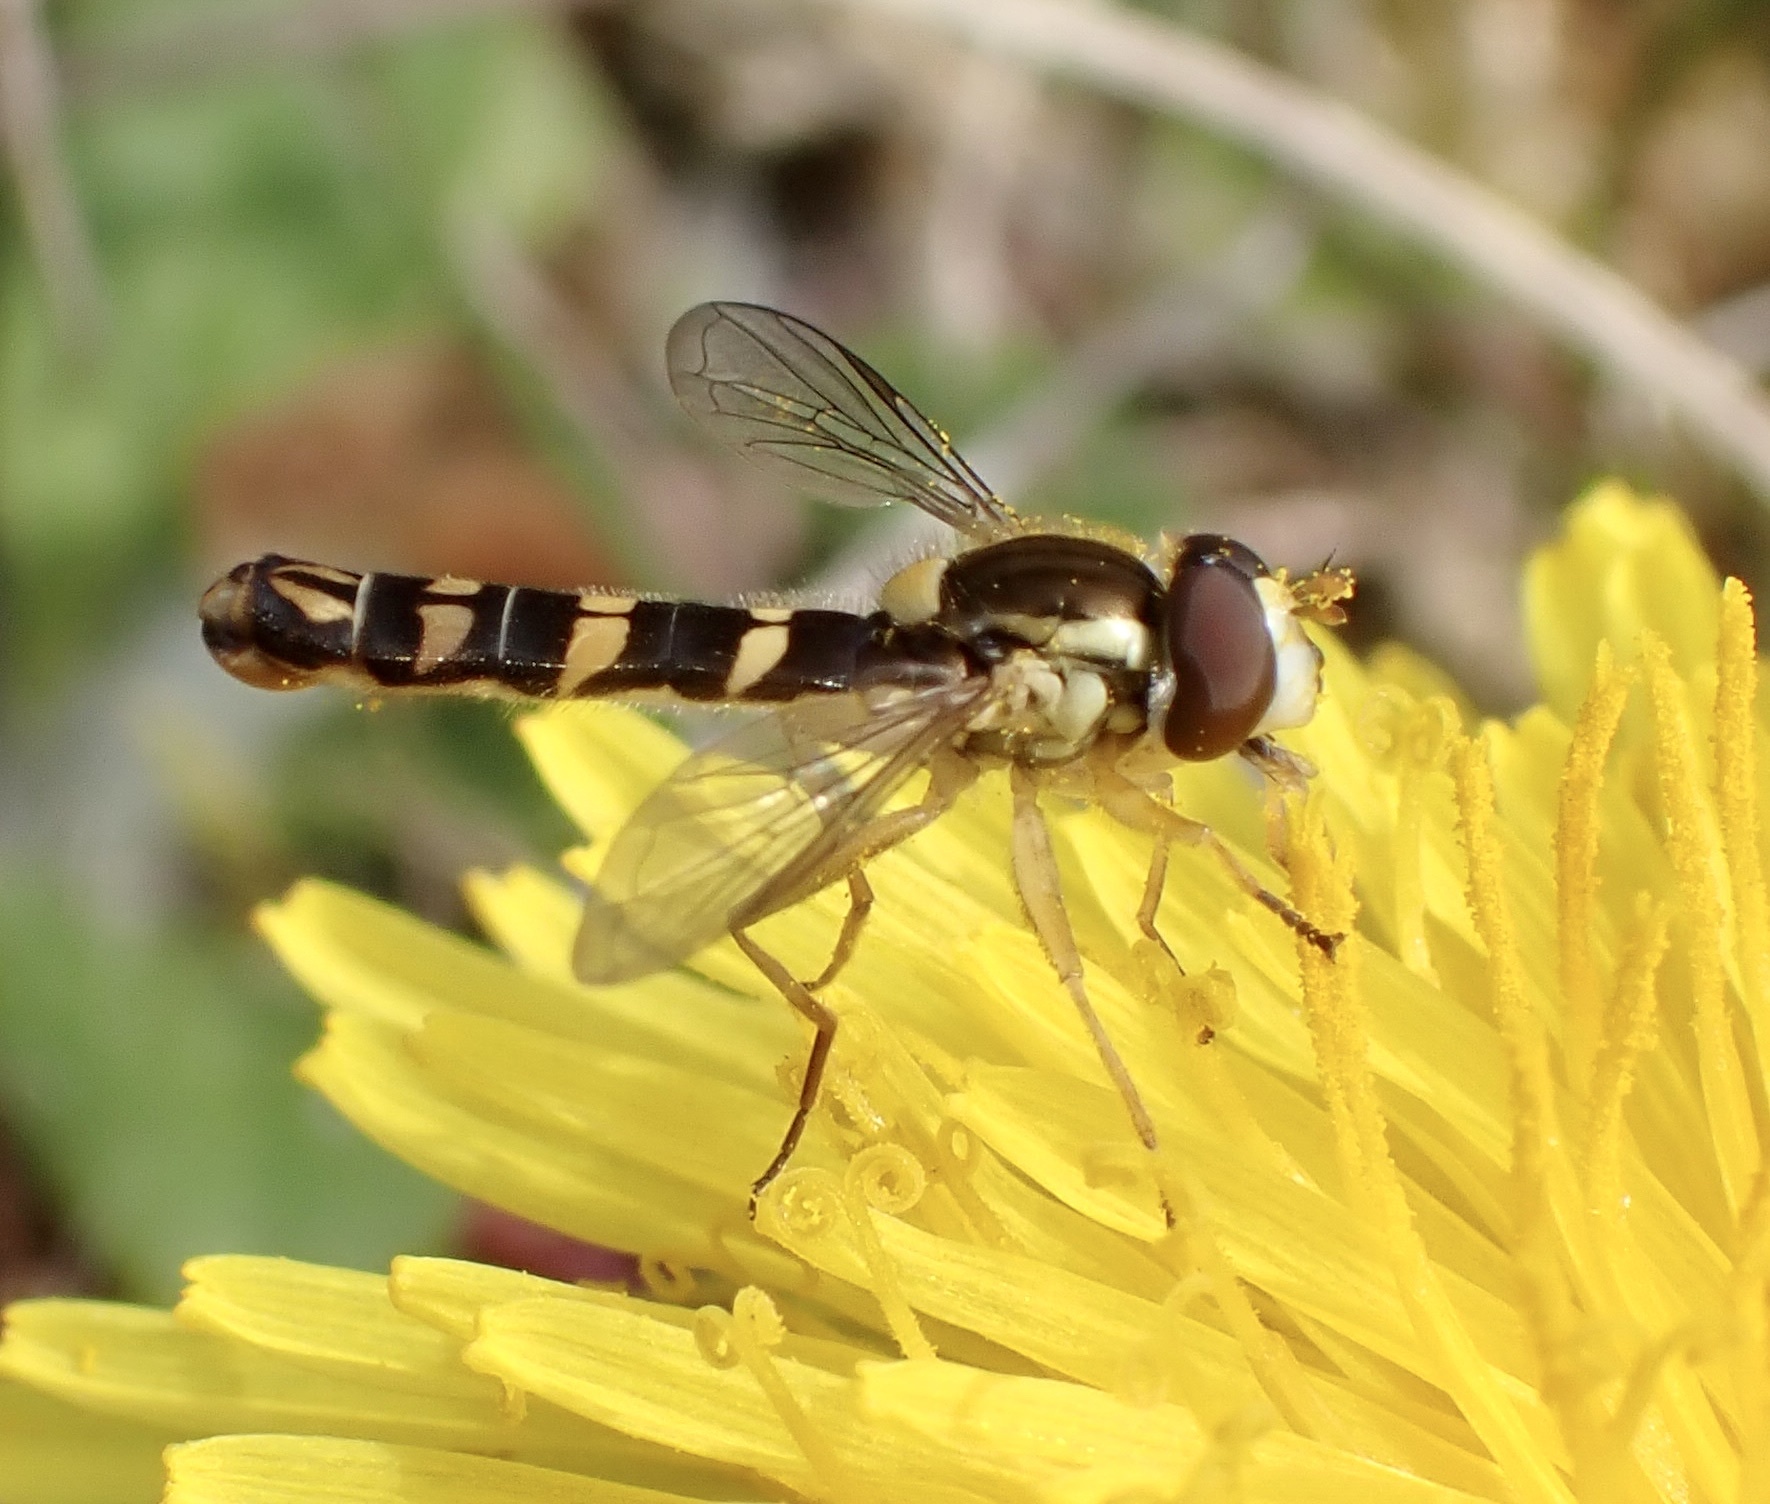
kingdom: Animalia
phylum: Arthropoda
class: Insecta
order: Diptera
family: Syrphidae
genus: Sphaerophoria
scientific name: Sphaerophoria scripta
